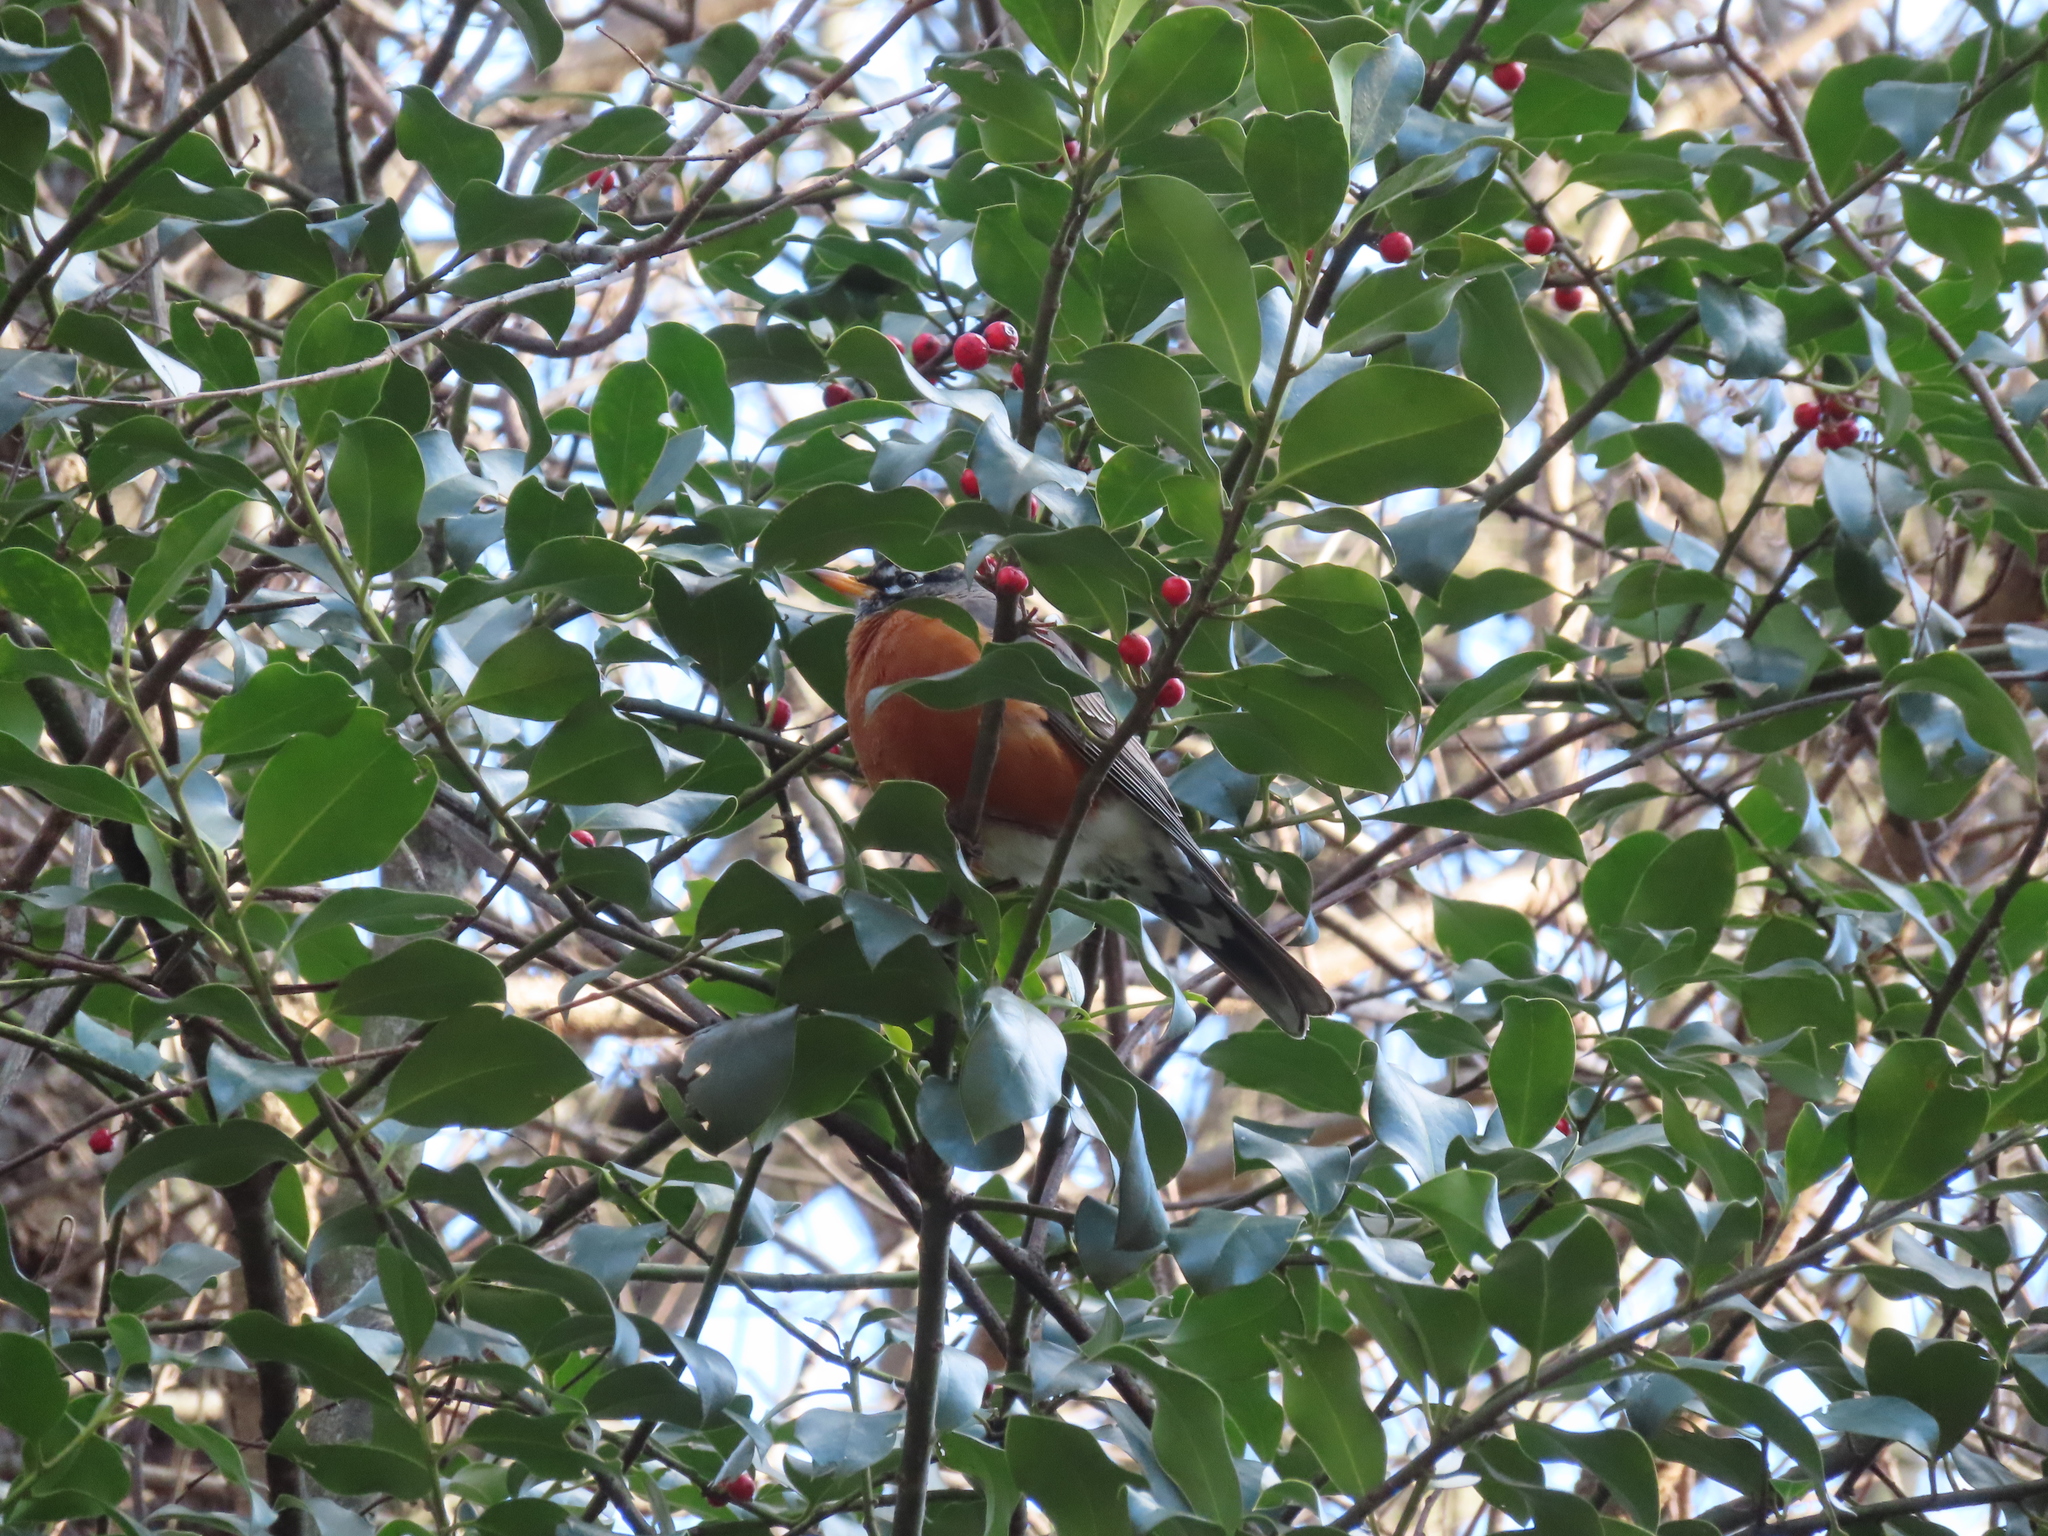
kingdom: Animalia
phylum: Chordata
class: Aves
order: Passeriformes
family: Turdidae
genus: Turdus
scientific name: Turdus migratorius
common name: American robin
